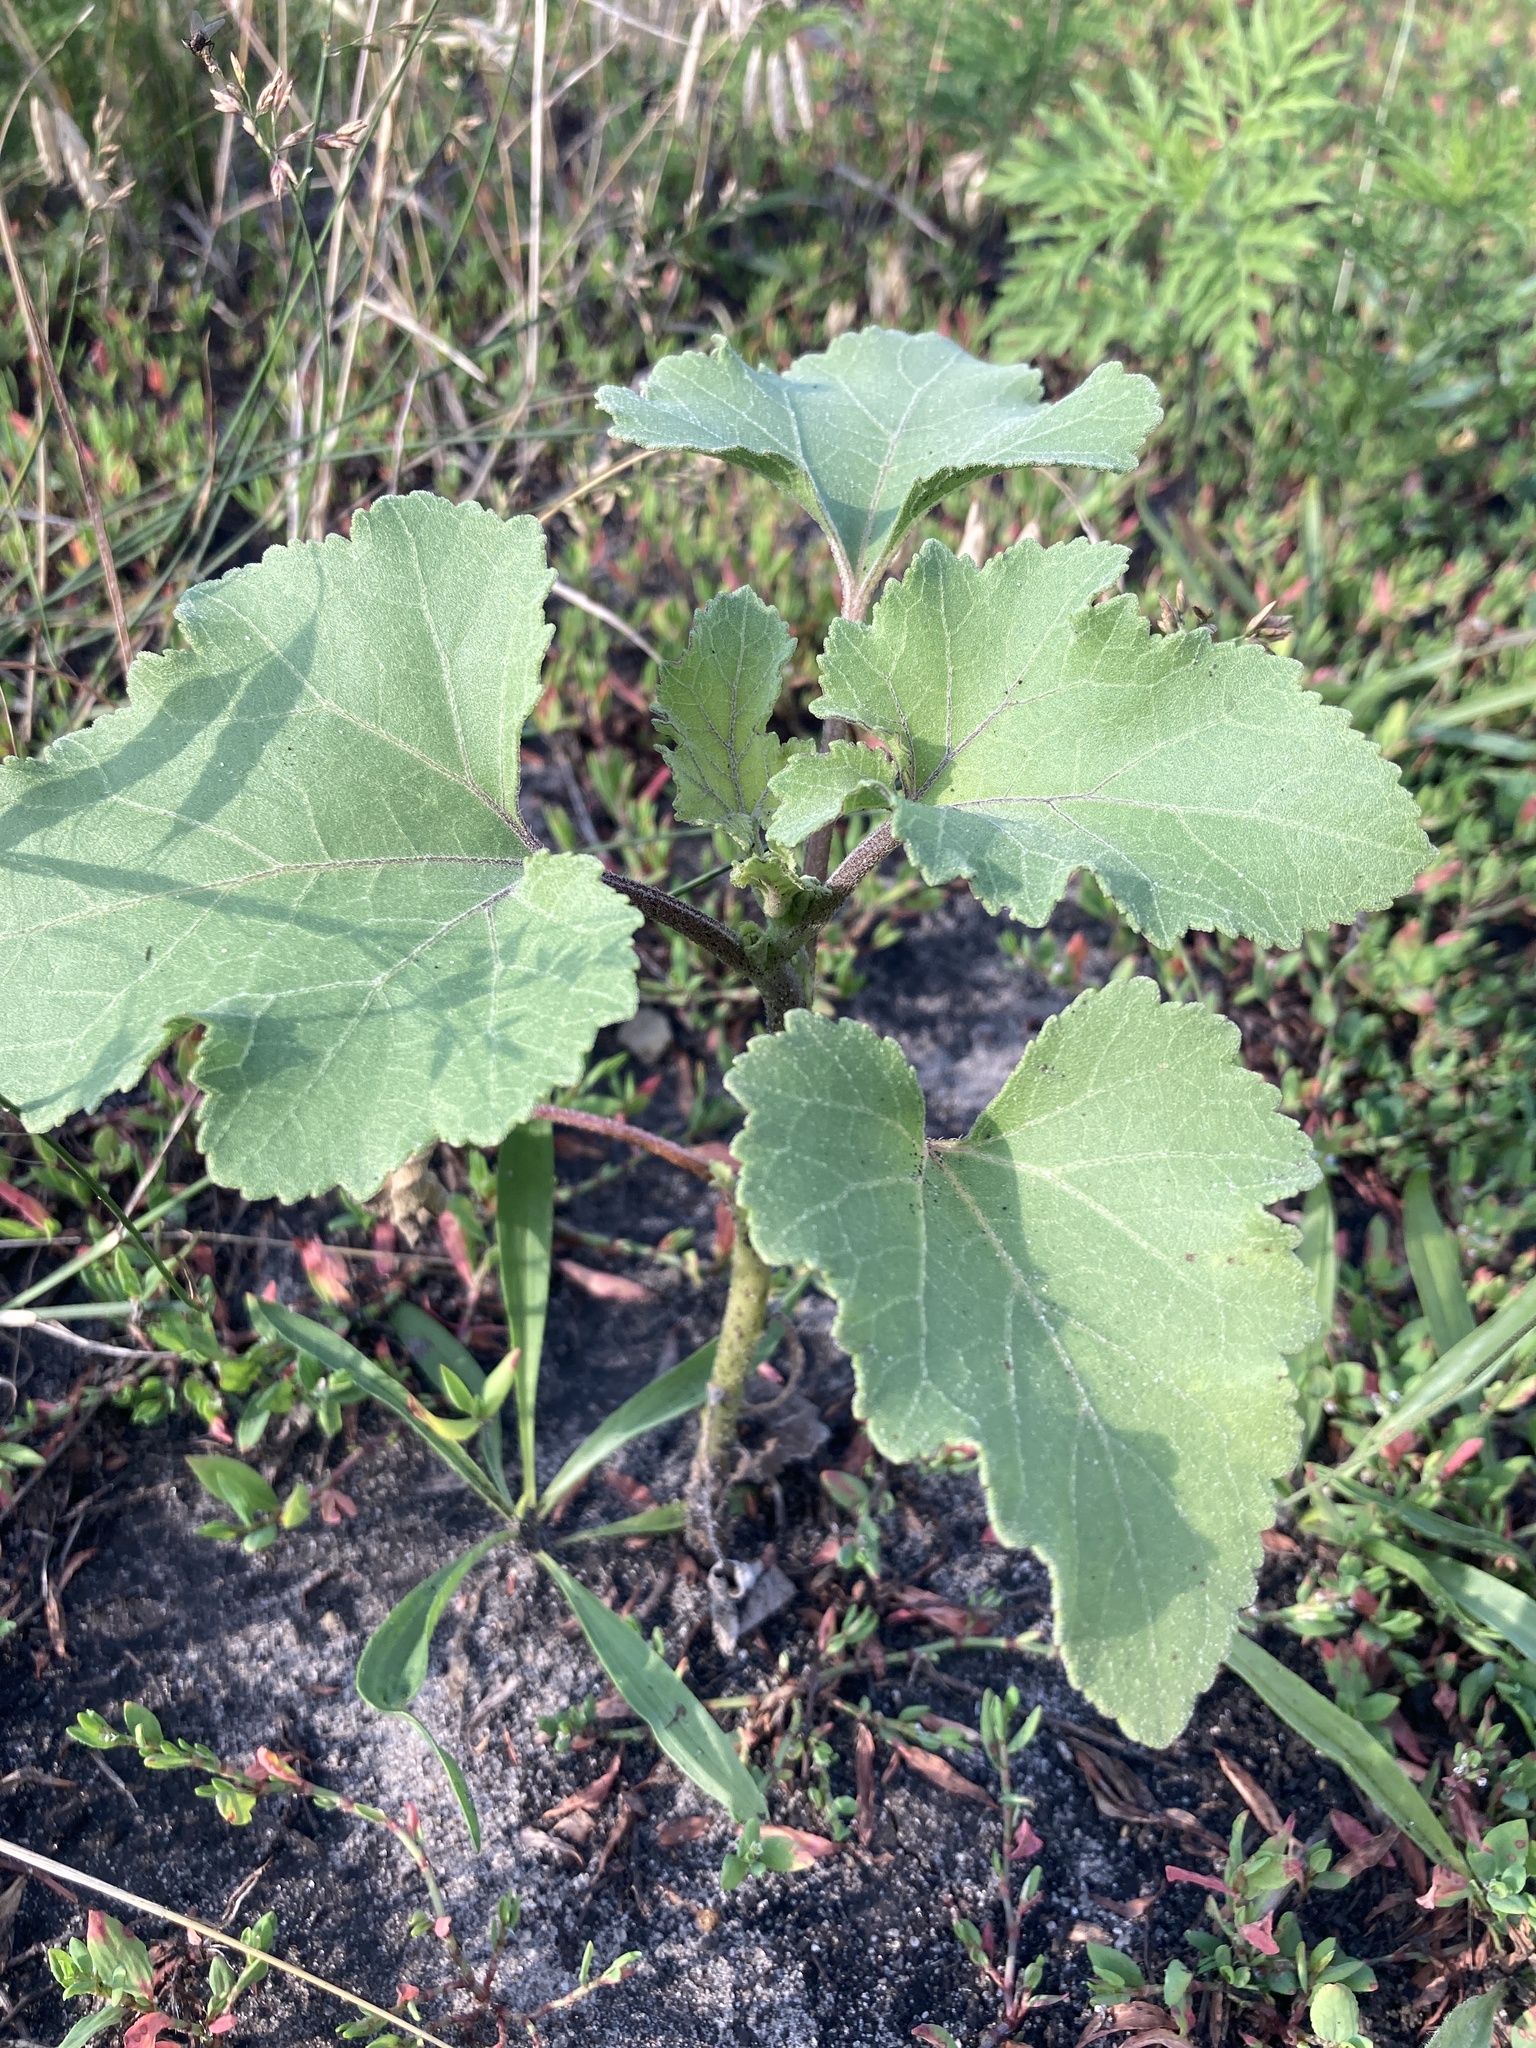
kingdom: Plantae
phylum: Tracheophyta
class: Magnoliopsida
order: Asterales
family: Asteraceae
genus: Xanthium
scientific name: Xanthium orientale
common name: Californian burr
